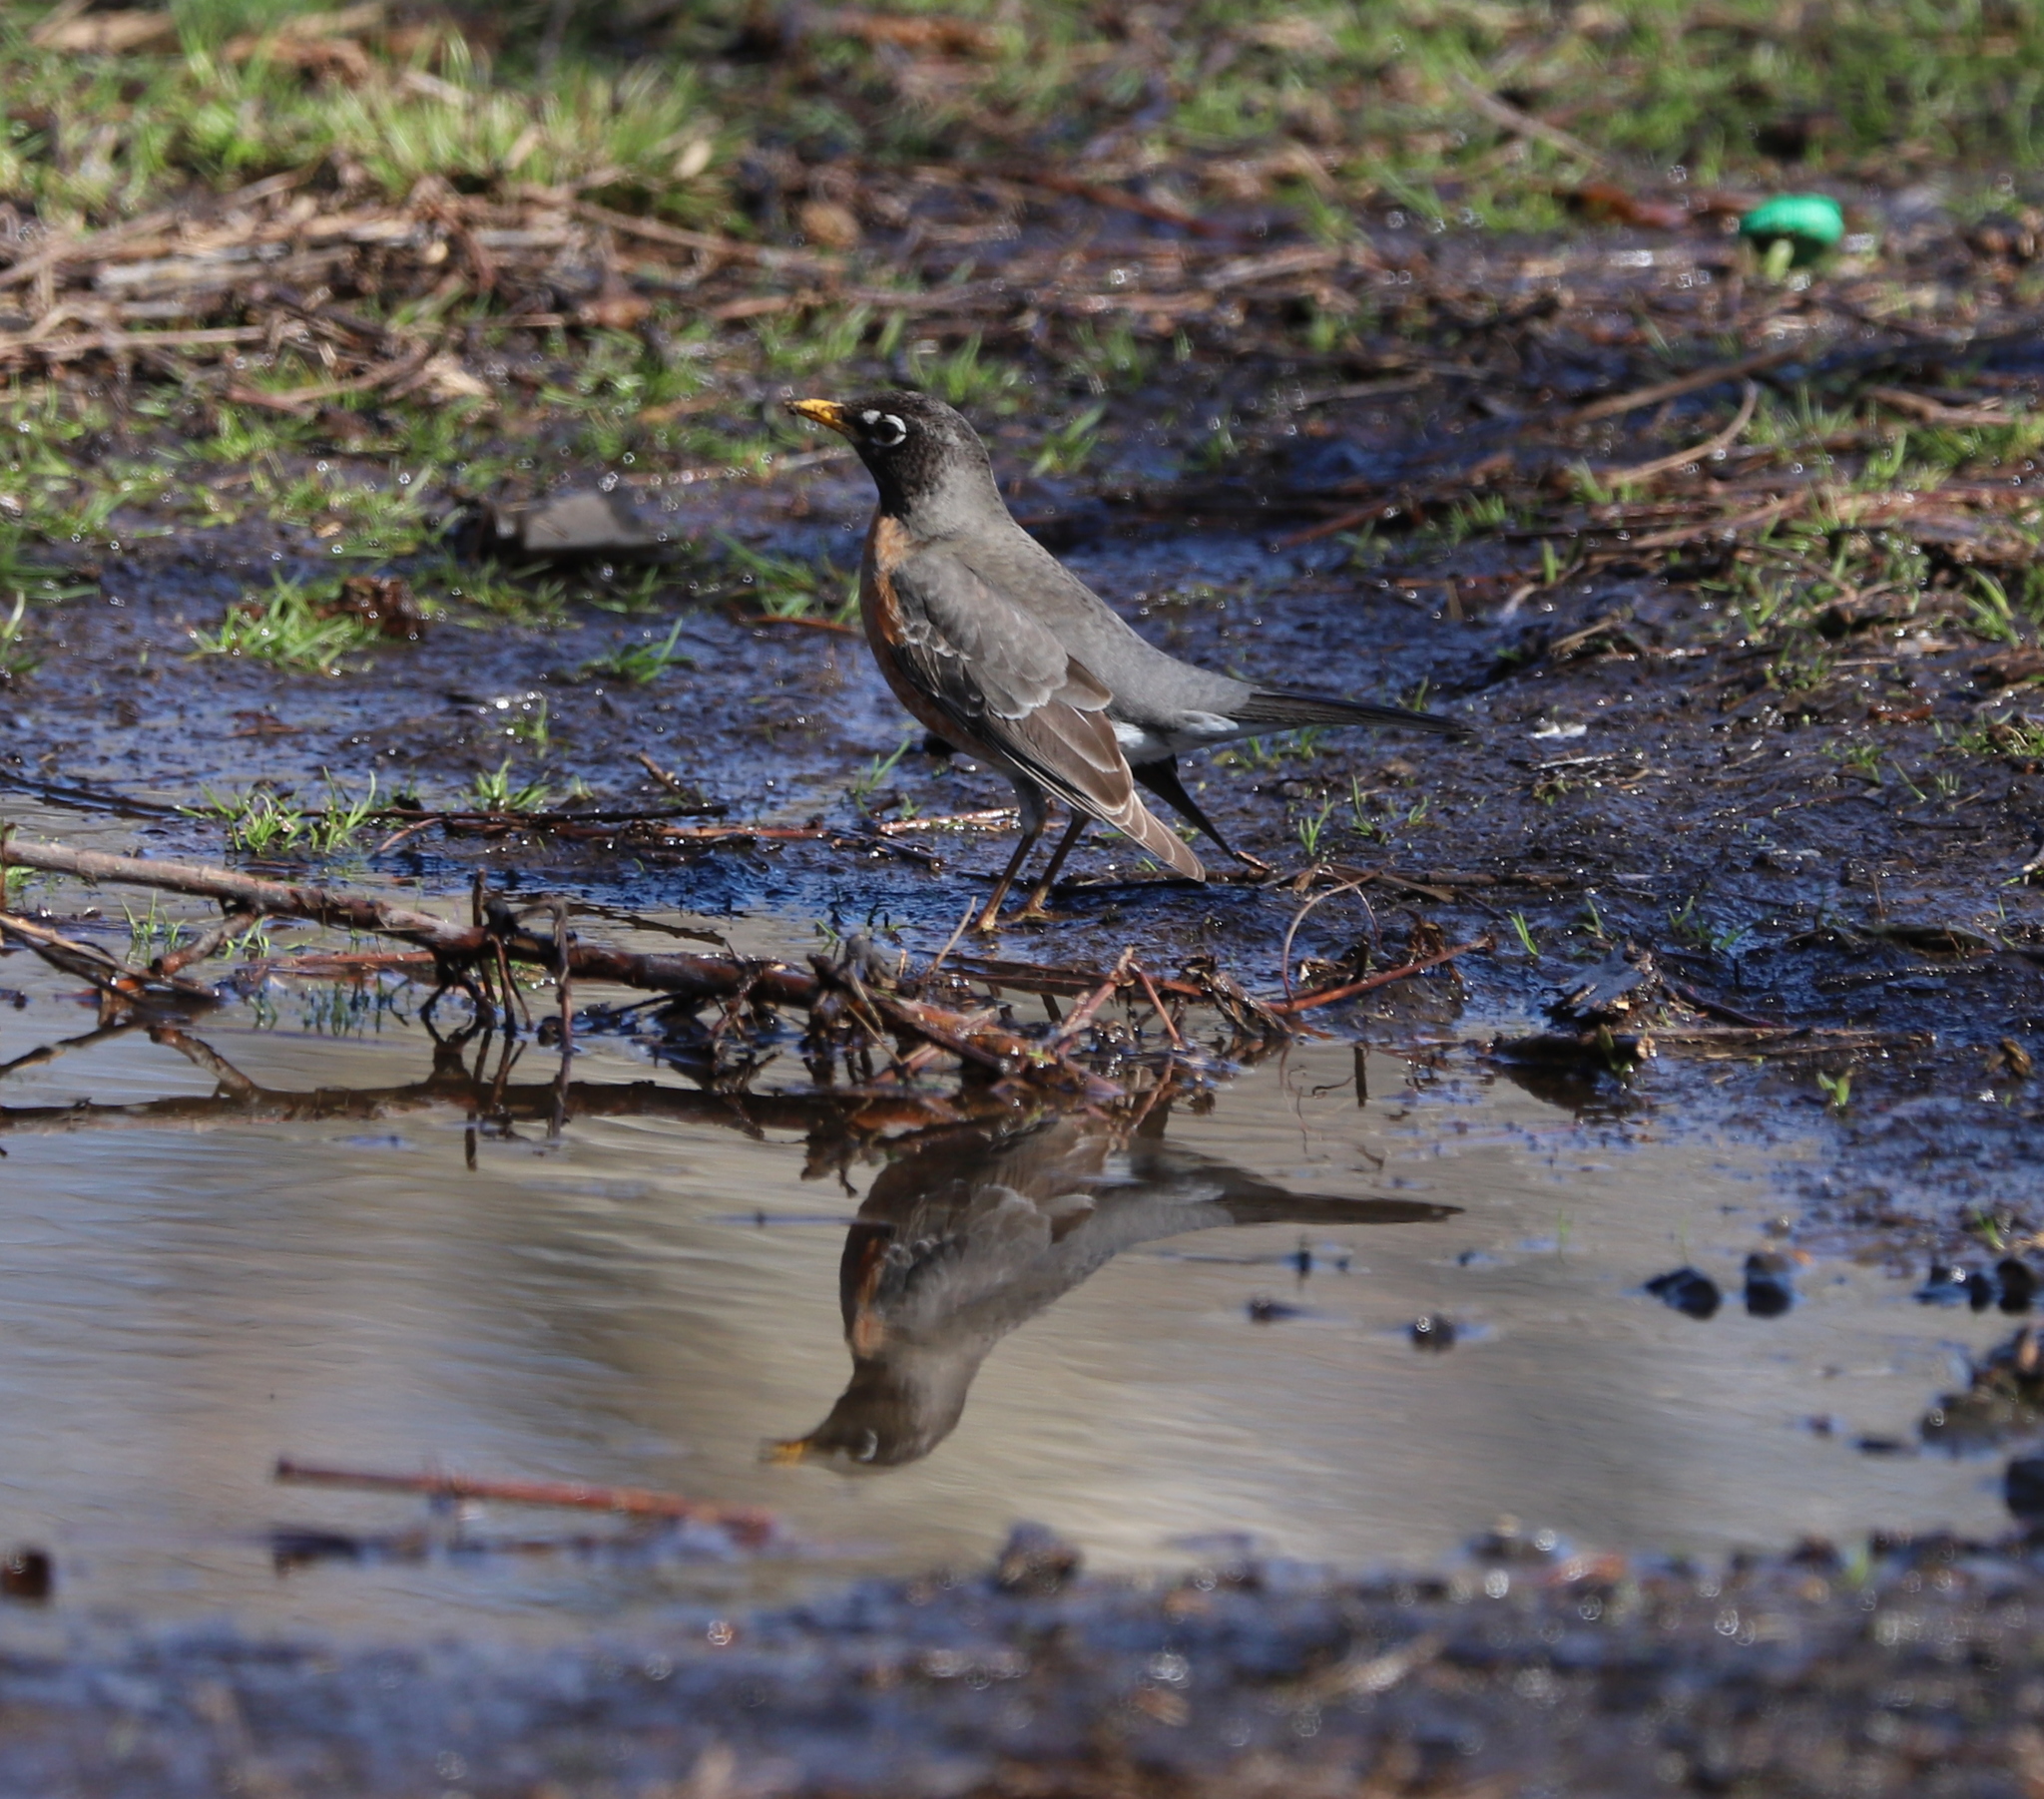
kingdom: Animalia
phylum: Chordata
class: Aves
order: Passeriformes
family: Turdidae
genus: Turdus
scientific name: Turdus migratorius
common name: American robin
